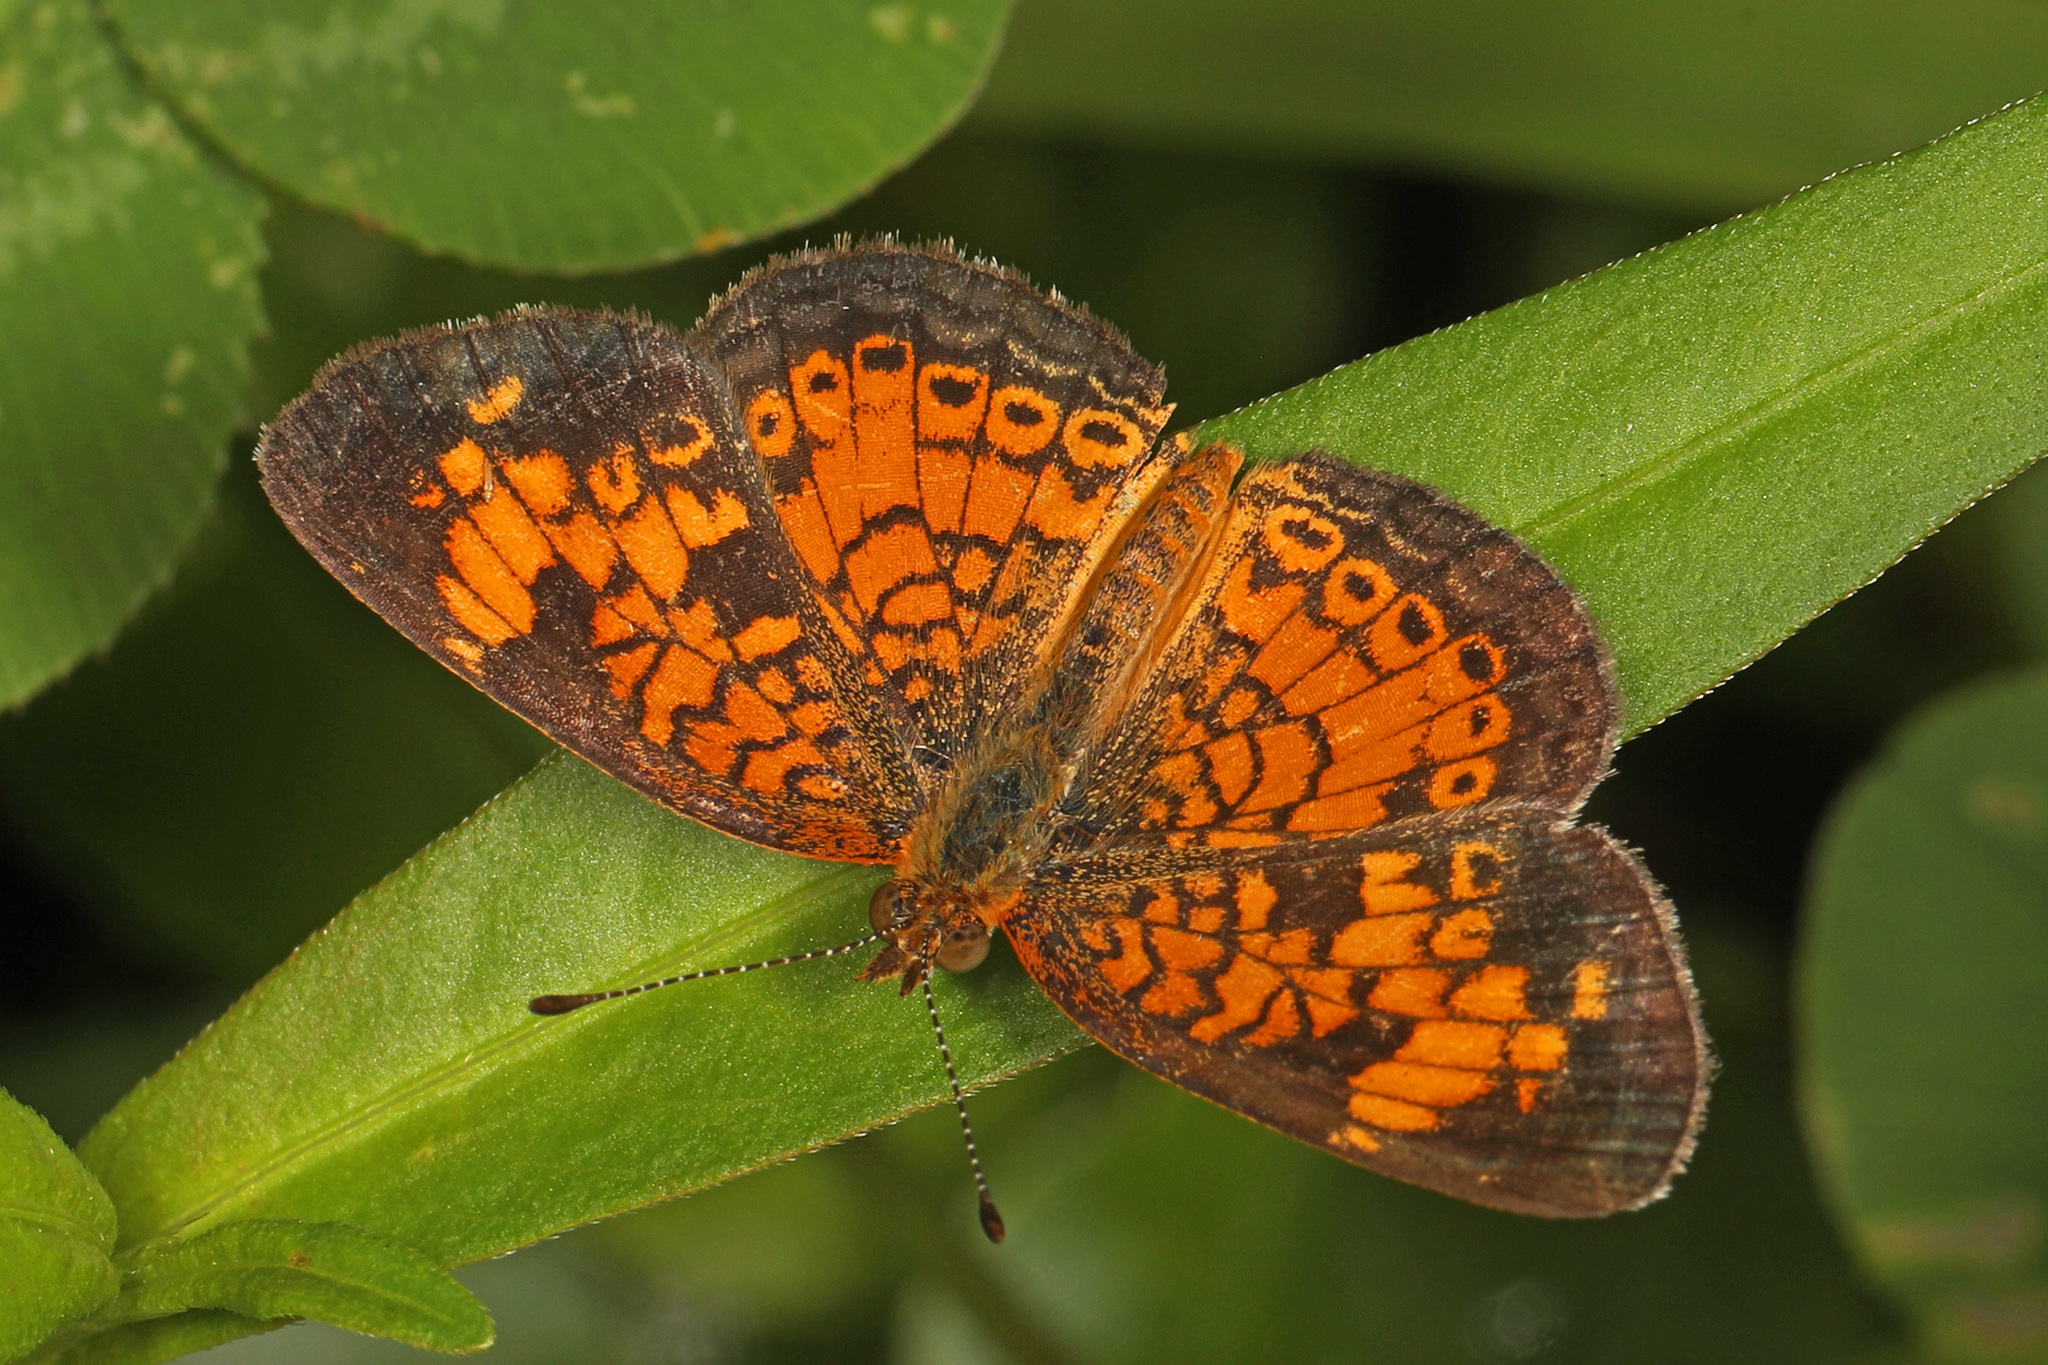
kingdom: Animalia
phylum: Arthropoda
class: Insecta
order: Lepidoptera
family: Nymphalidae
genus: Phyciodes
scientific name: Phyciodes tharos
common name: Pearl crescent
